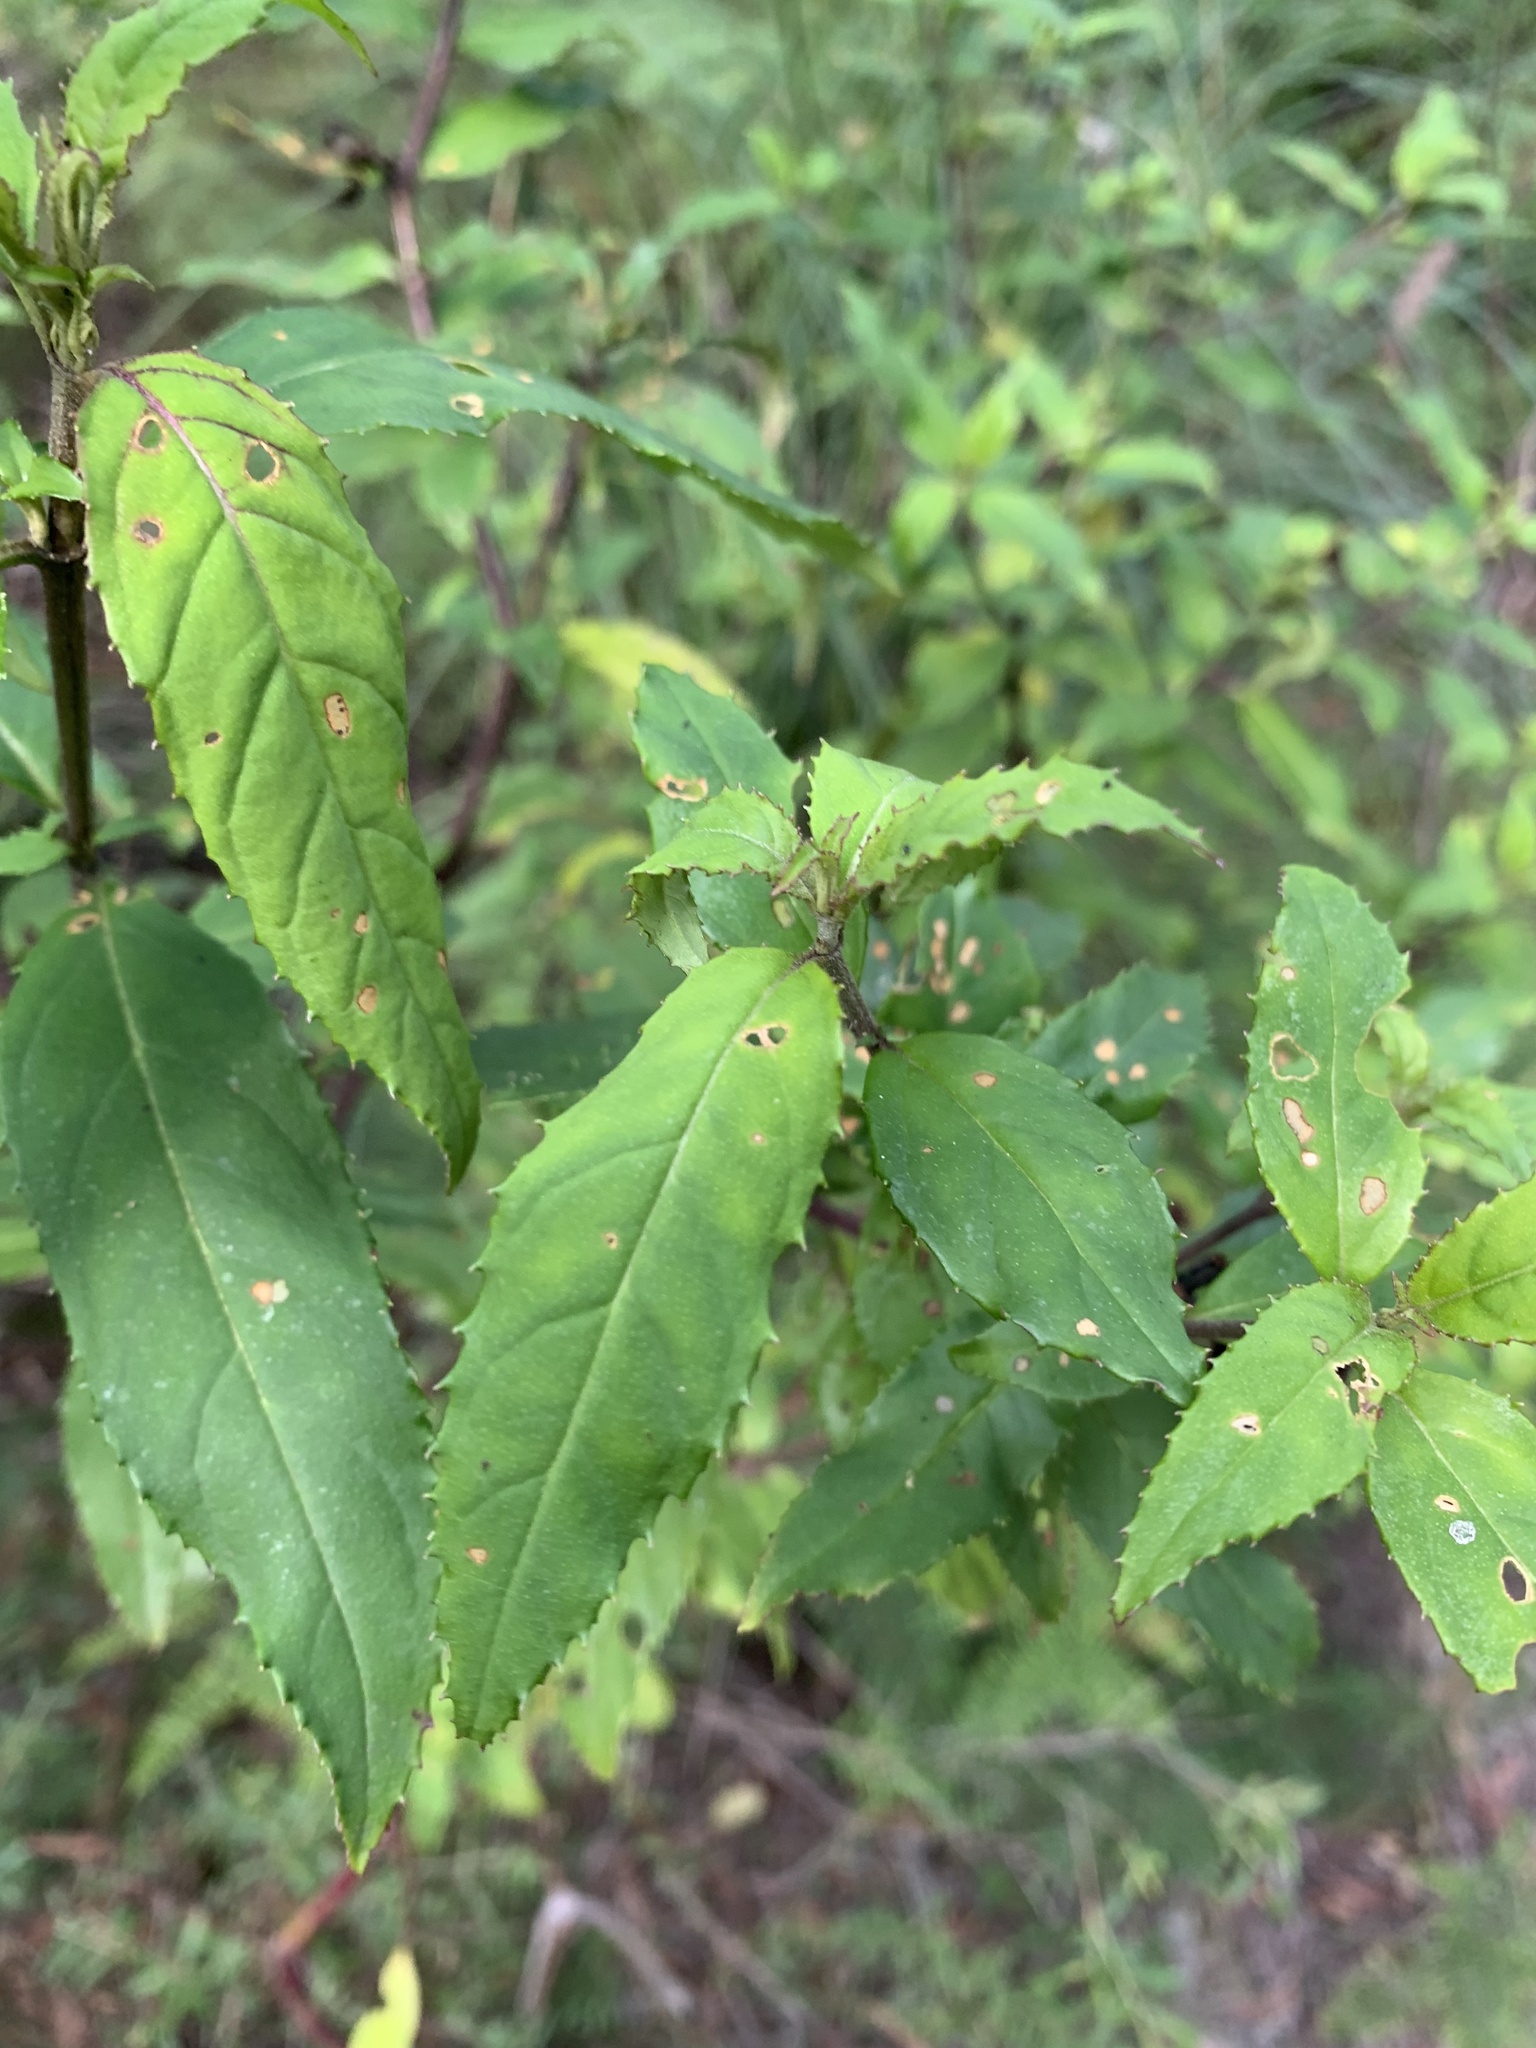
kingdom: Plantae
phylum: Tracheophyta
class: Magnoliopsida
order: Lamiales
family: Lamiaceae
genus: Prostanthera
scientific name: Prostanthera lasianthos
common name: Mountain-lilac
